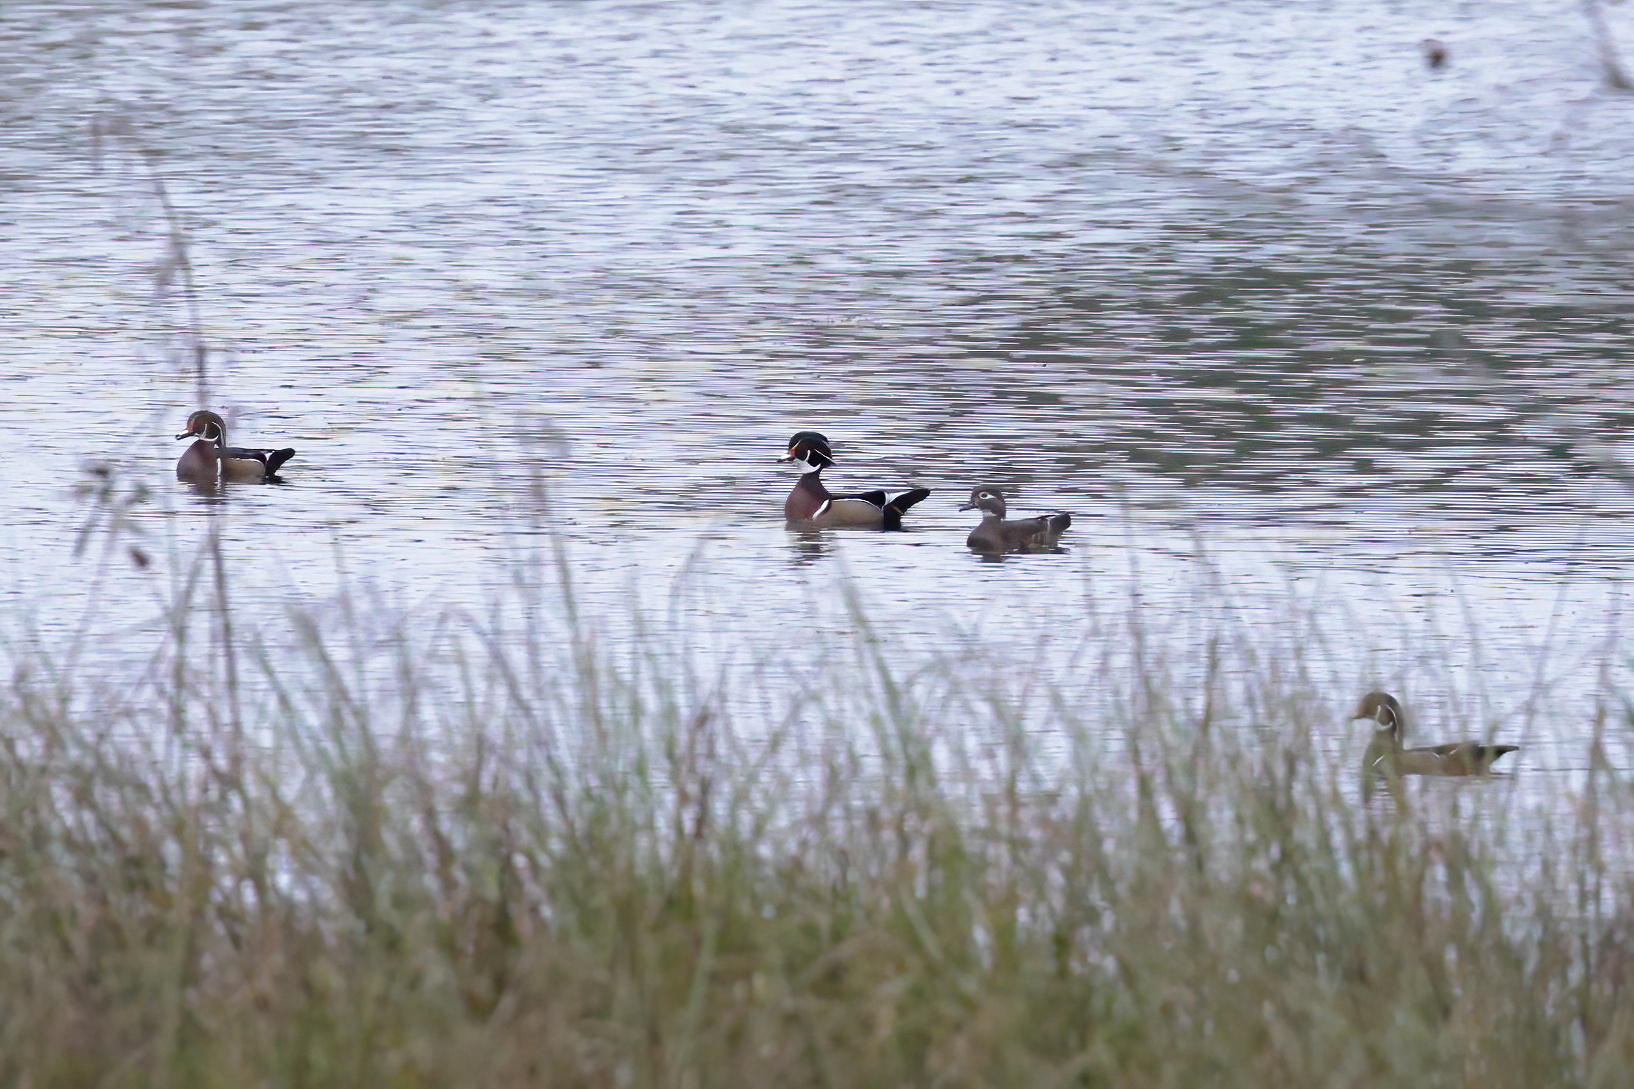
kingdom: Animalia
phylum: Chordata
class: Aves
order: Anseriformes
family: Anatidae
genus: Aix
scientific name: Aix sponsa
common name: Wood duck
